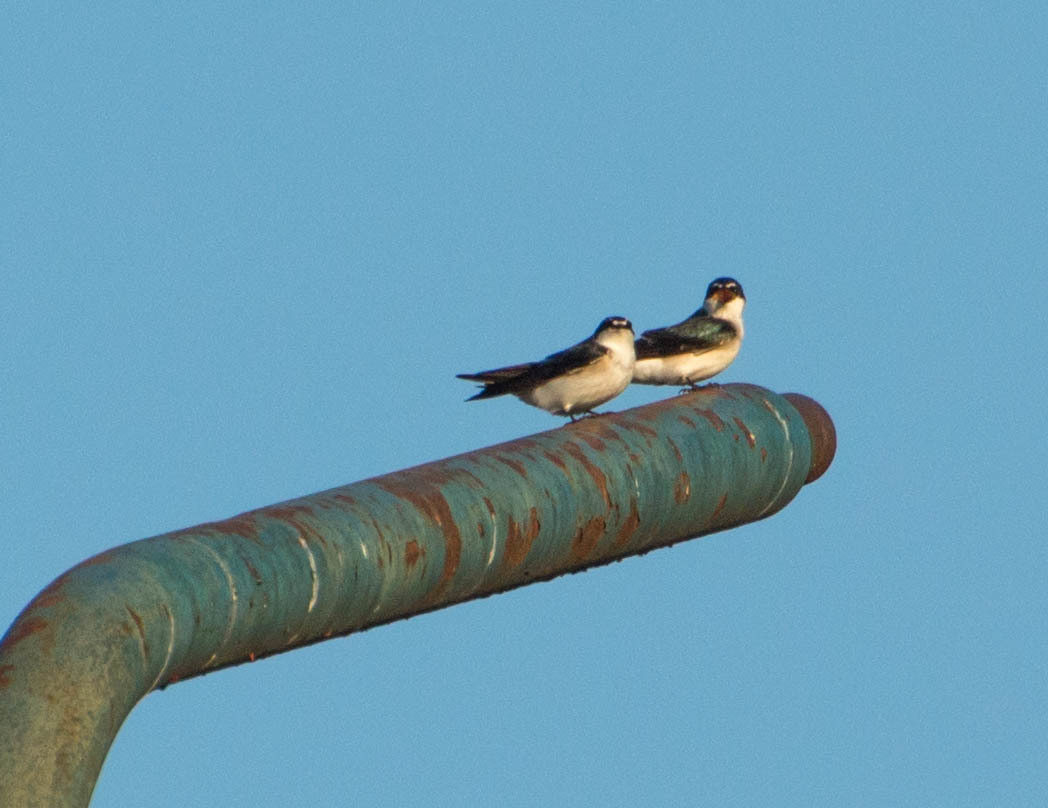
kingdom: Animalia
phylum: Chordata
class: Aves
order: Passeriformes
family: Hirundinidae
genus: Tachycineta
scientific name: Tachycineta leucorrhoa
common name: White-rumped swallow
